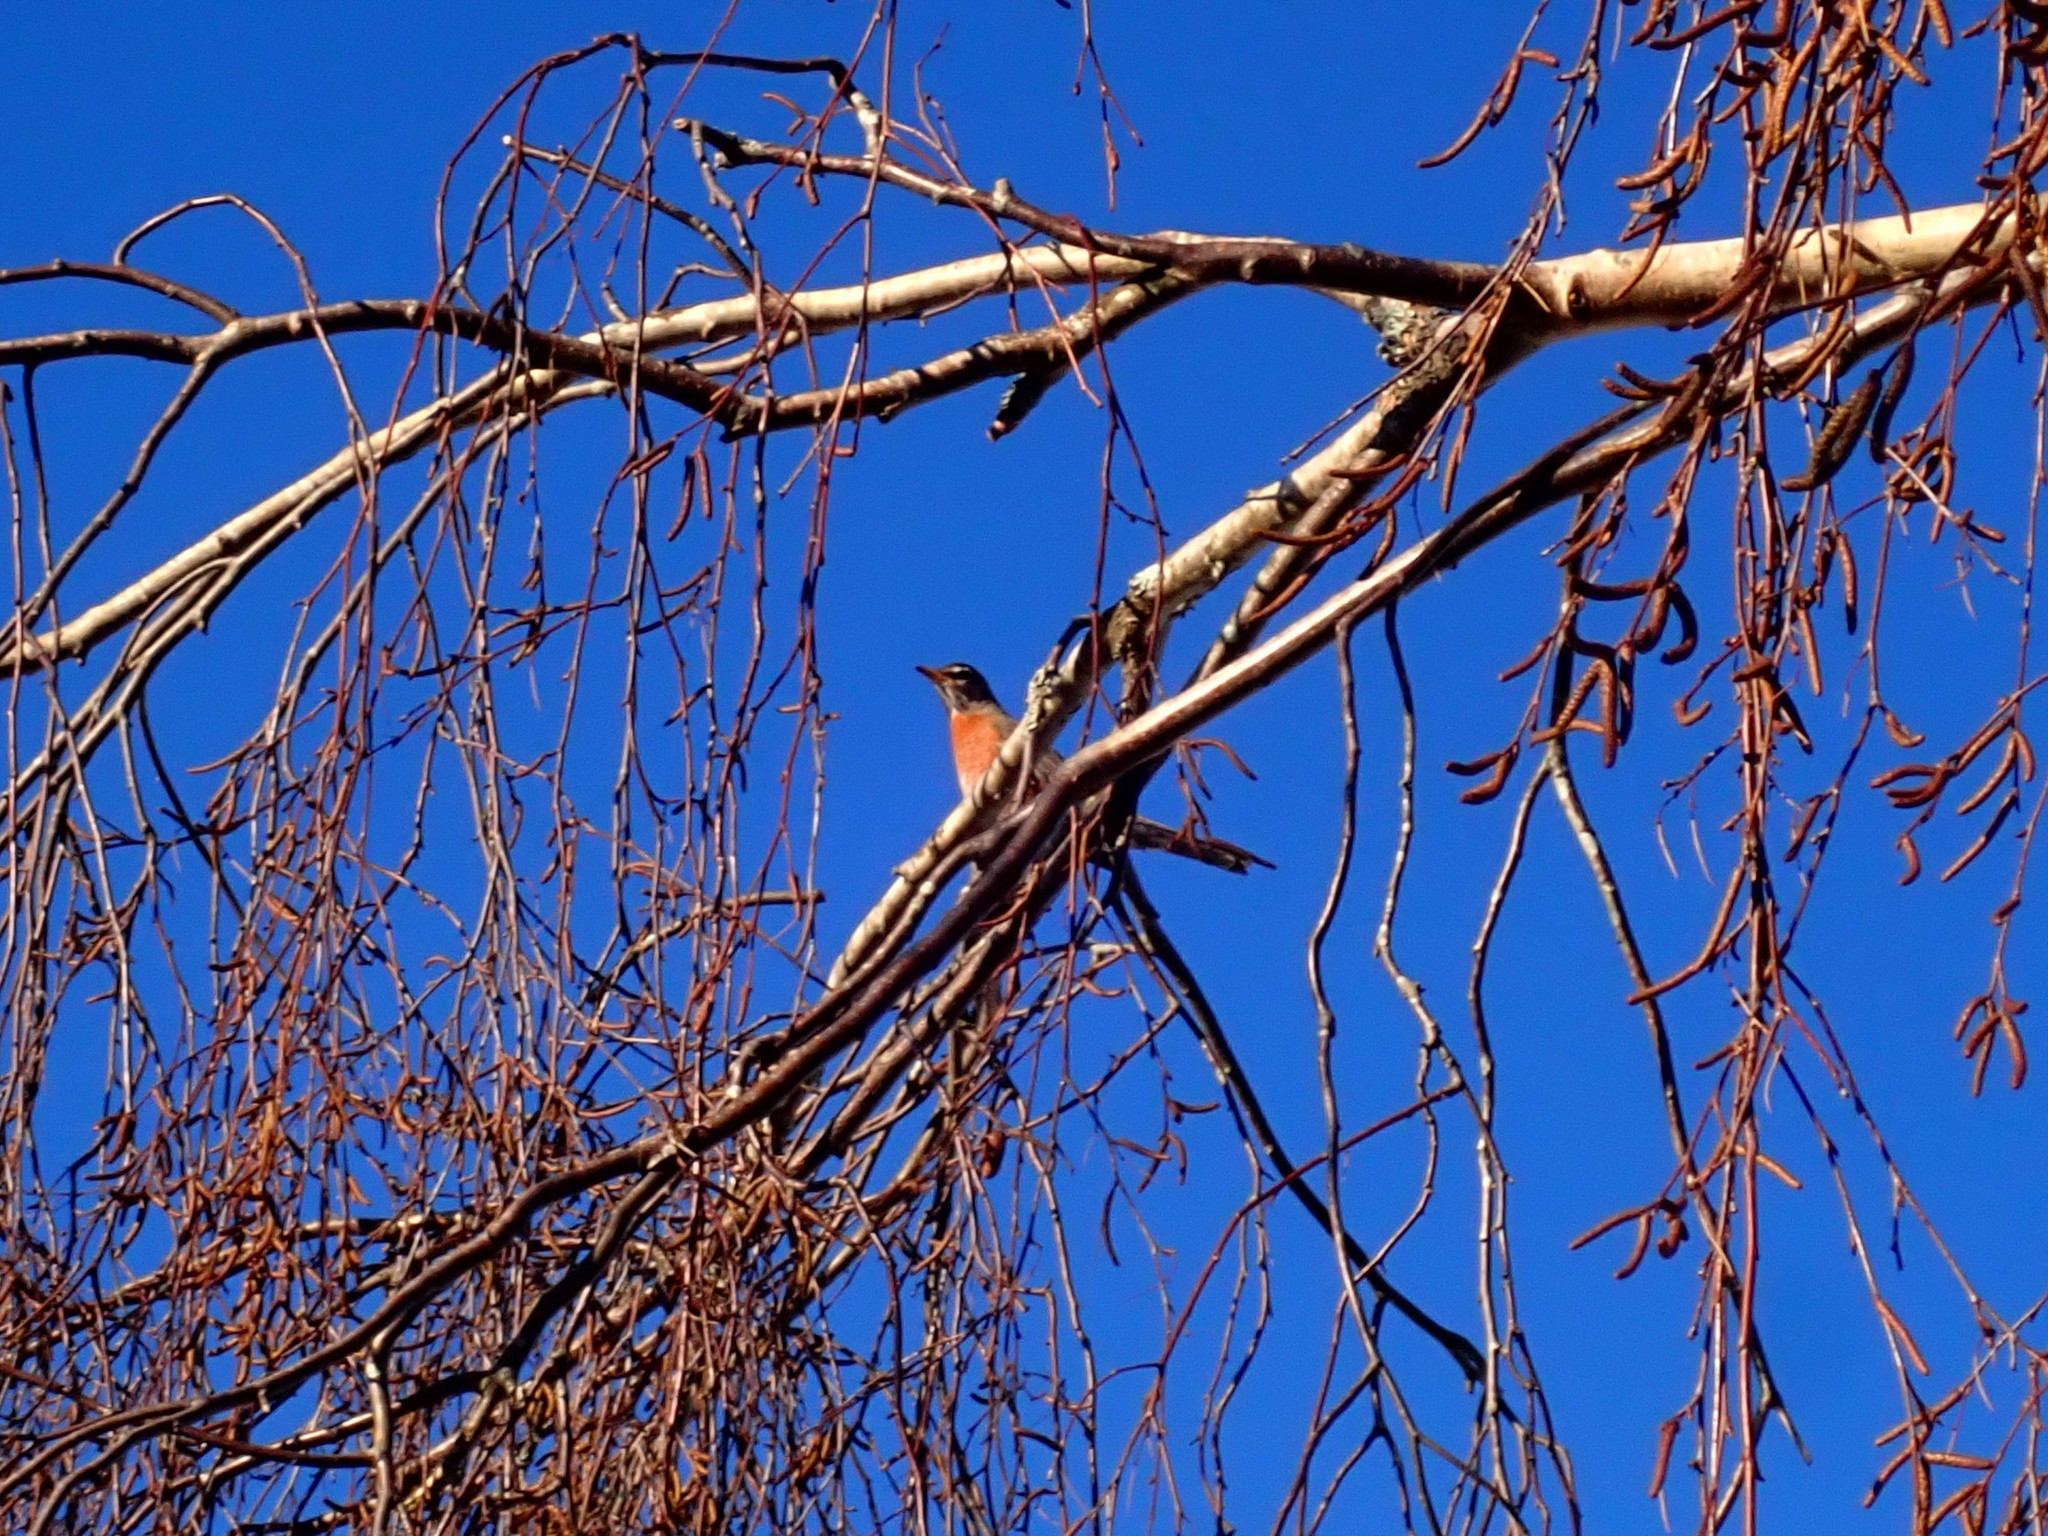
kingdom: Animalia
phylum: Chordata
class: Aves
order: Passeriformes
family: Turdidae
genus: Turdus
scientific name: Turdus migratorius
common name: American robin
